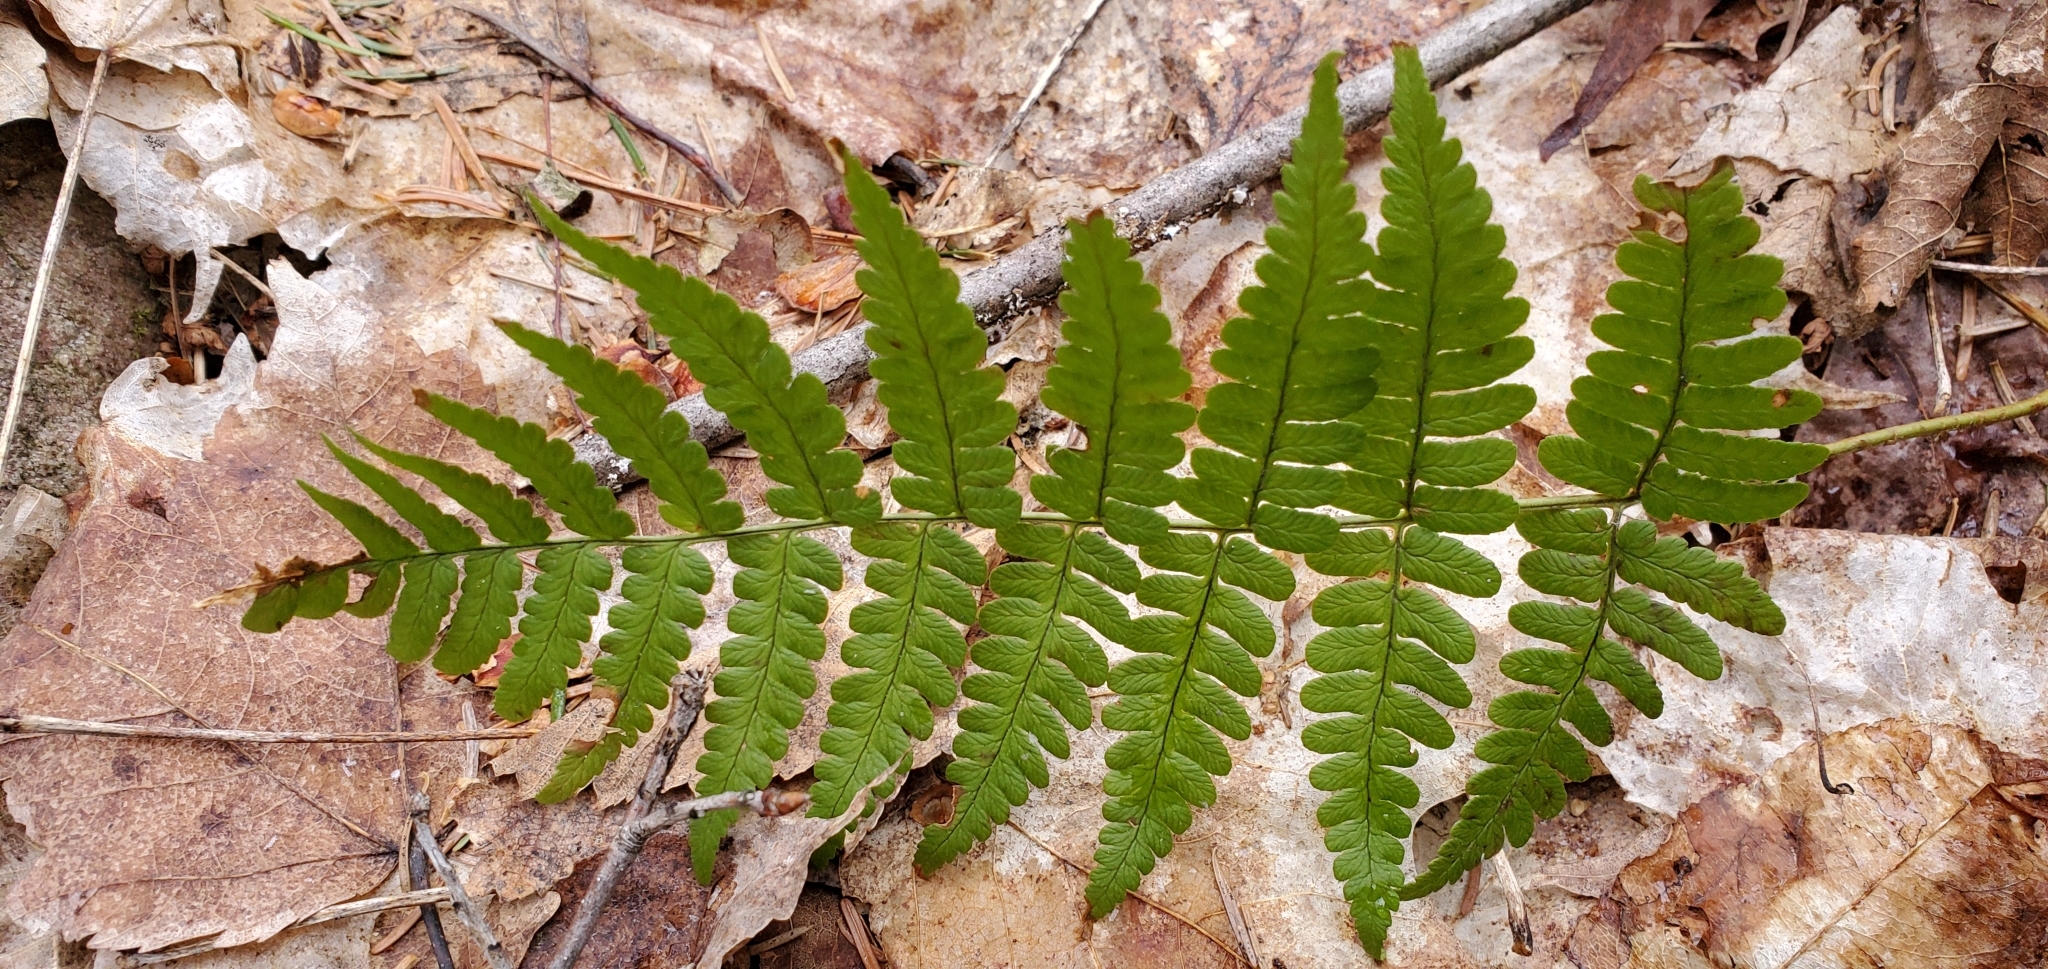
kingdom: Plantae
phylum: Tracheophyta
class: Polypodiopsida
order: Polypodiales
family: Dryopteridaceae
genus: Dryopteris
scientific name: Dryopteris marginalis
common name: Marginal wood fern
